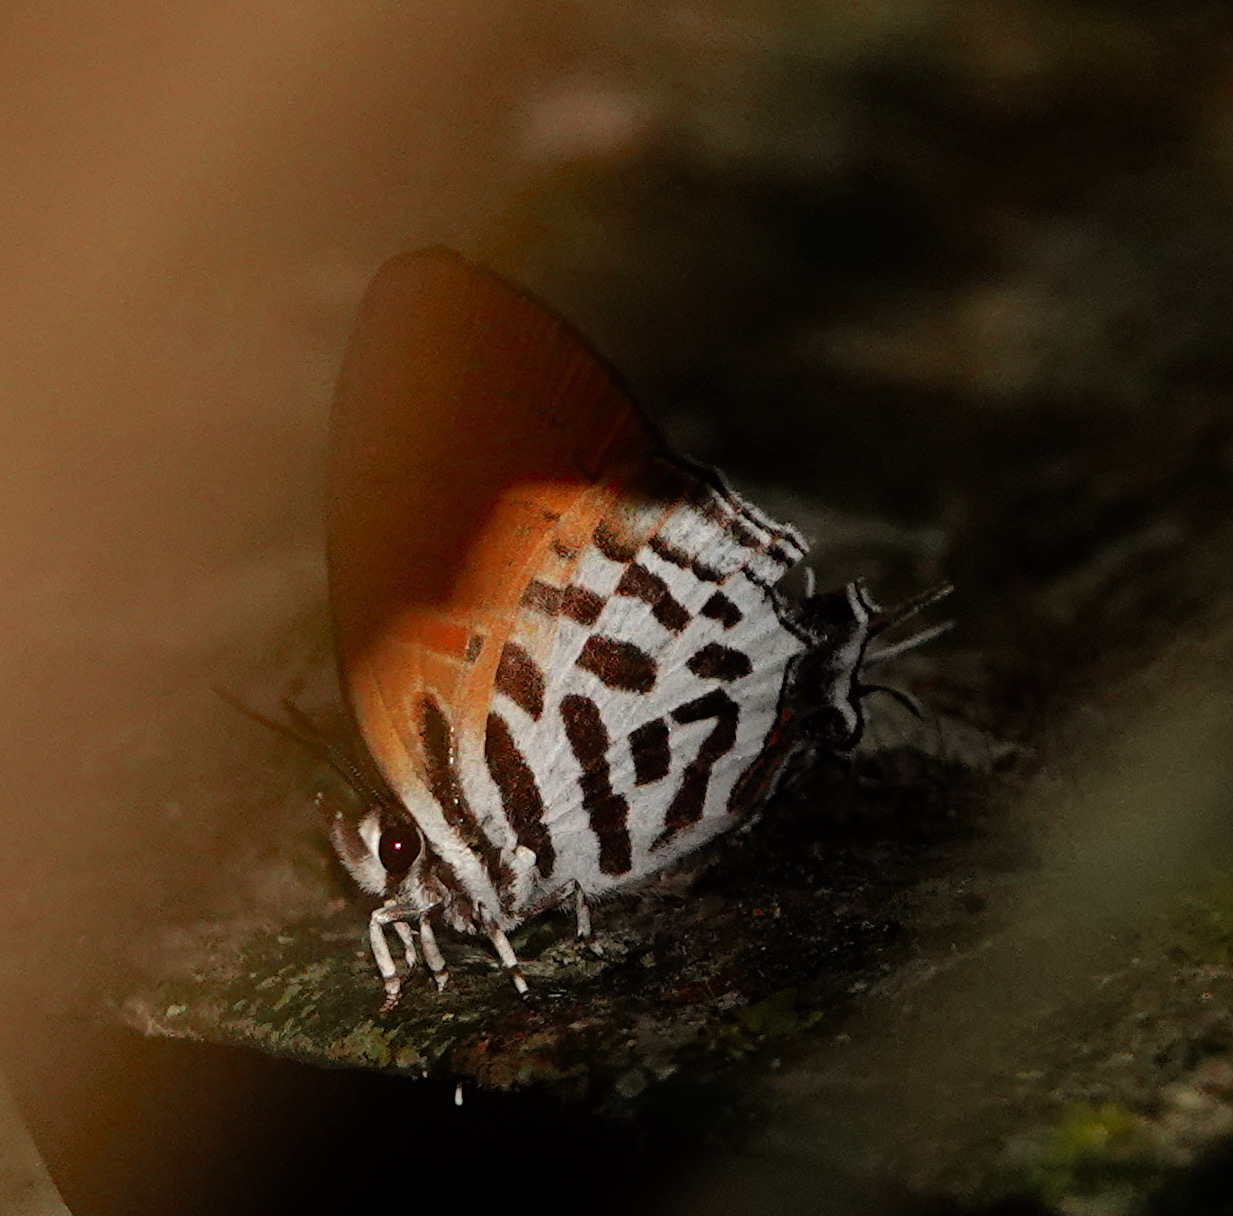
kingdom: Animalia
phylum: Arthropoda
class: Insecta
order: Lepidoptera
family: Lycaenidae
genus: Drupadia
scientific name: Drupadia ravindra
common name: Common posy
